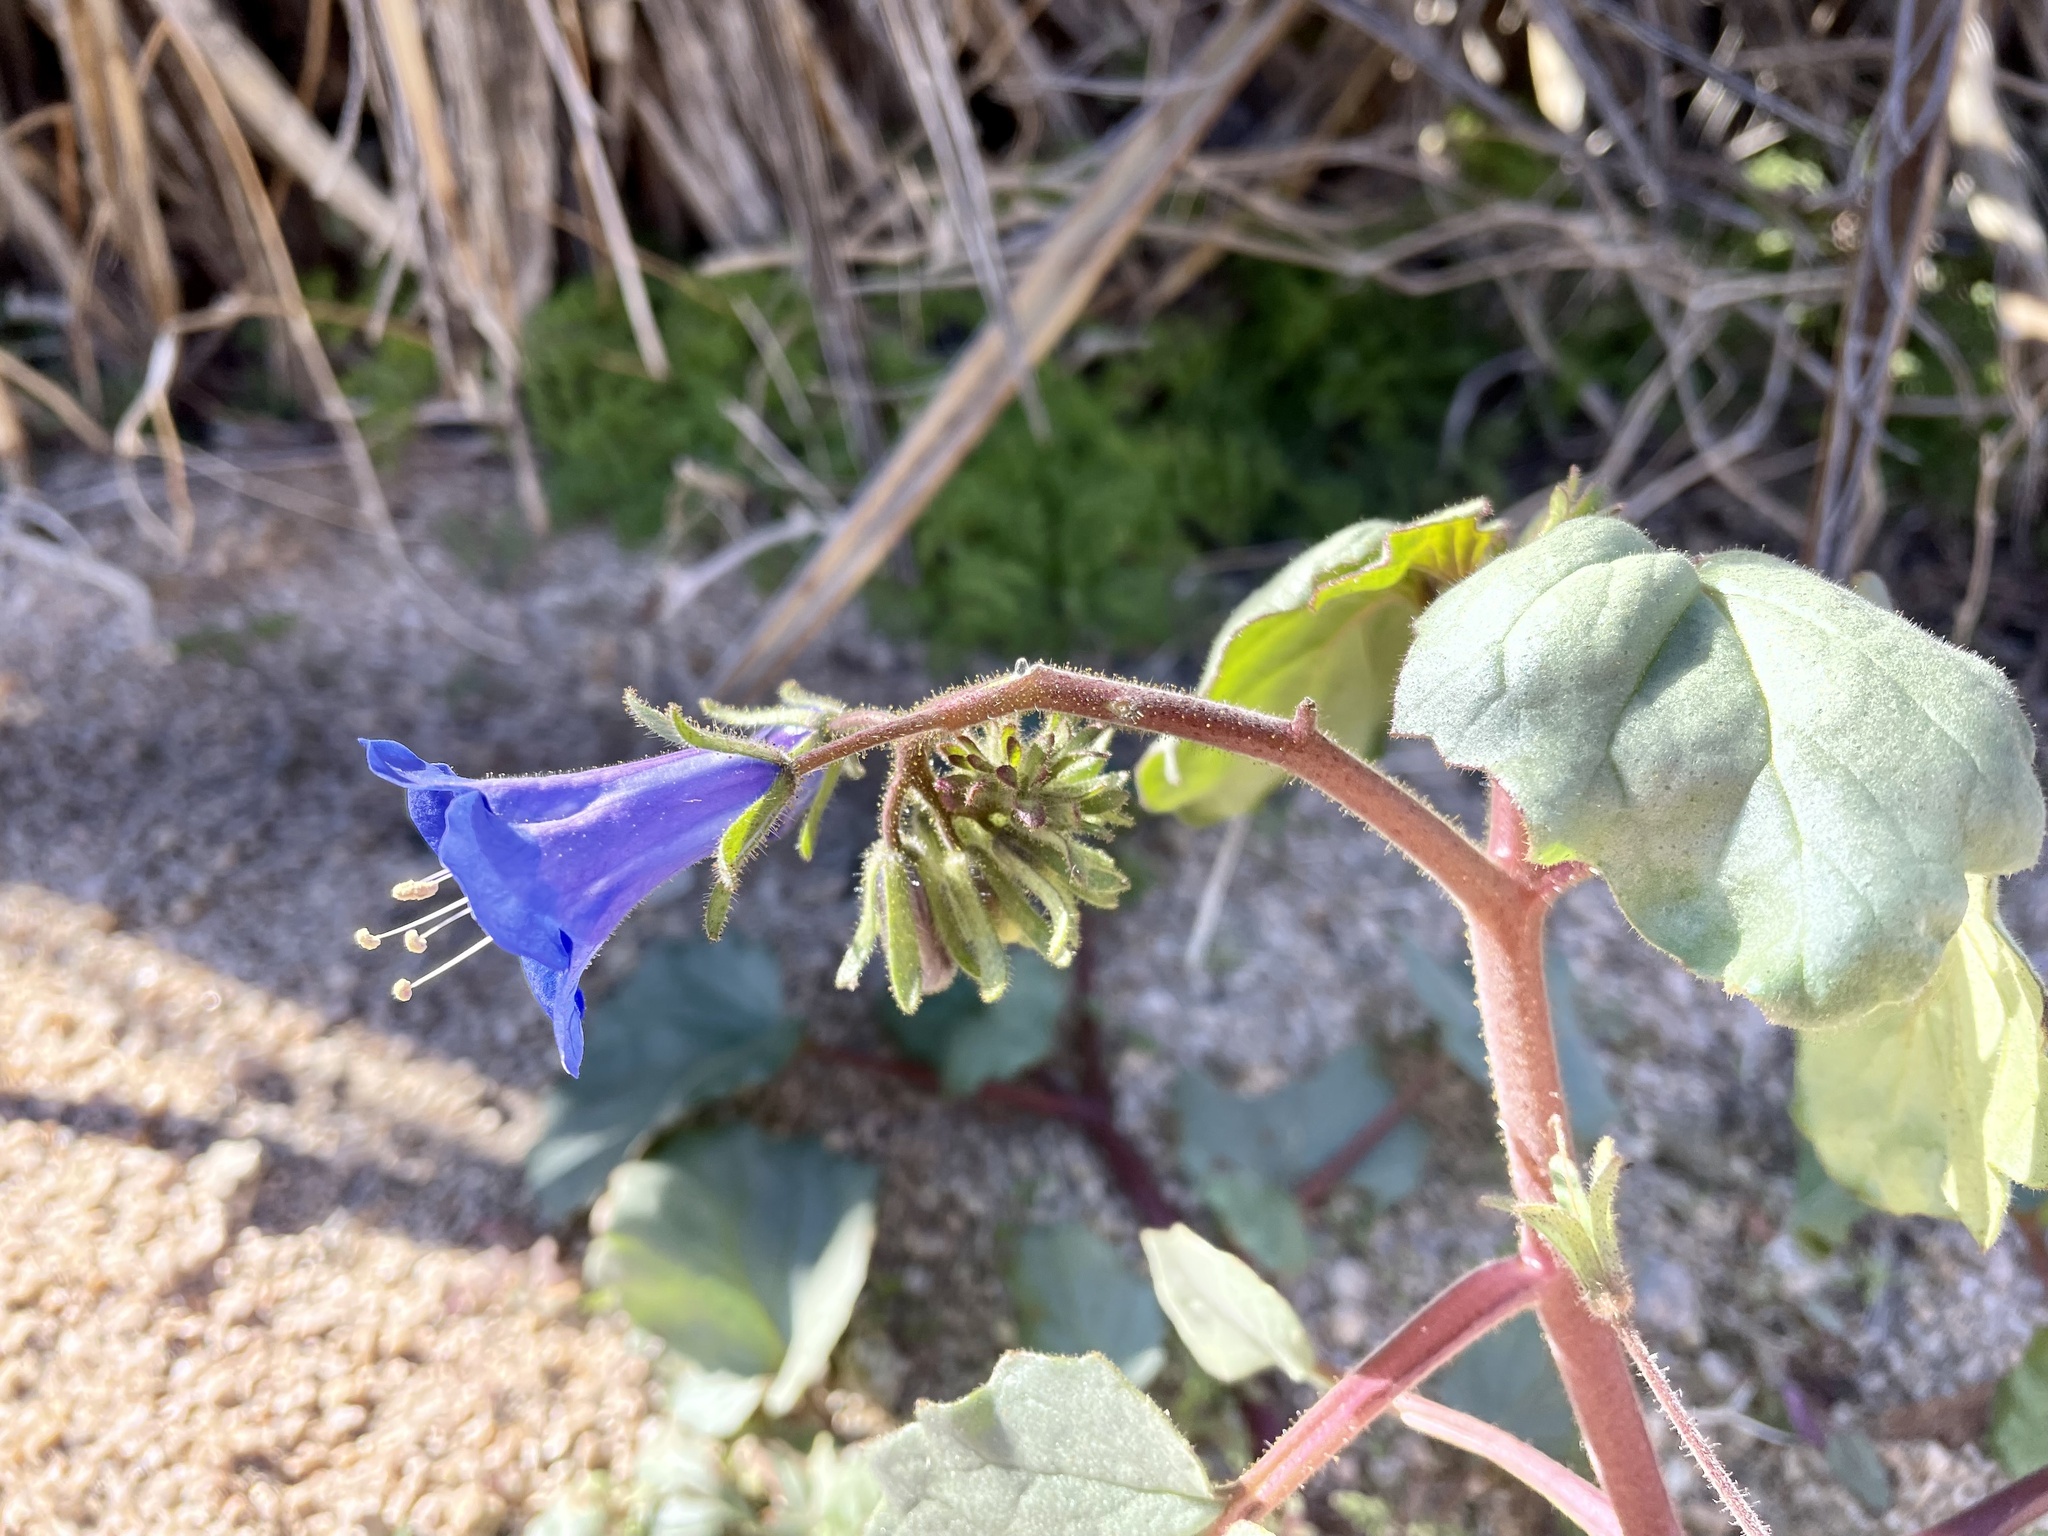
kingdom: Plantae
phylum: Tracheophyta
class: Magnoliopsida
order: Boraginales
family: Hydrophyllaceae
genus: Phacelia
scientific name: Phacelia campanularia
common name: California bluebell
